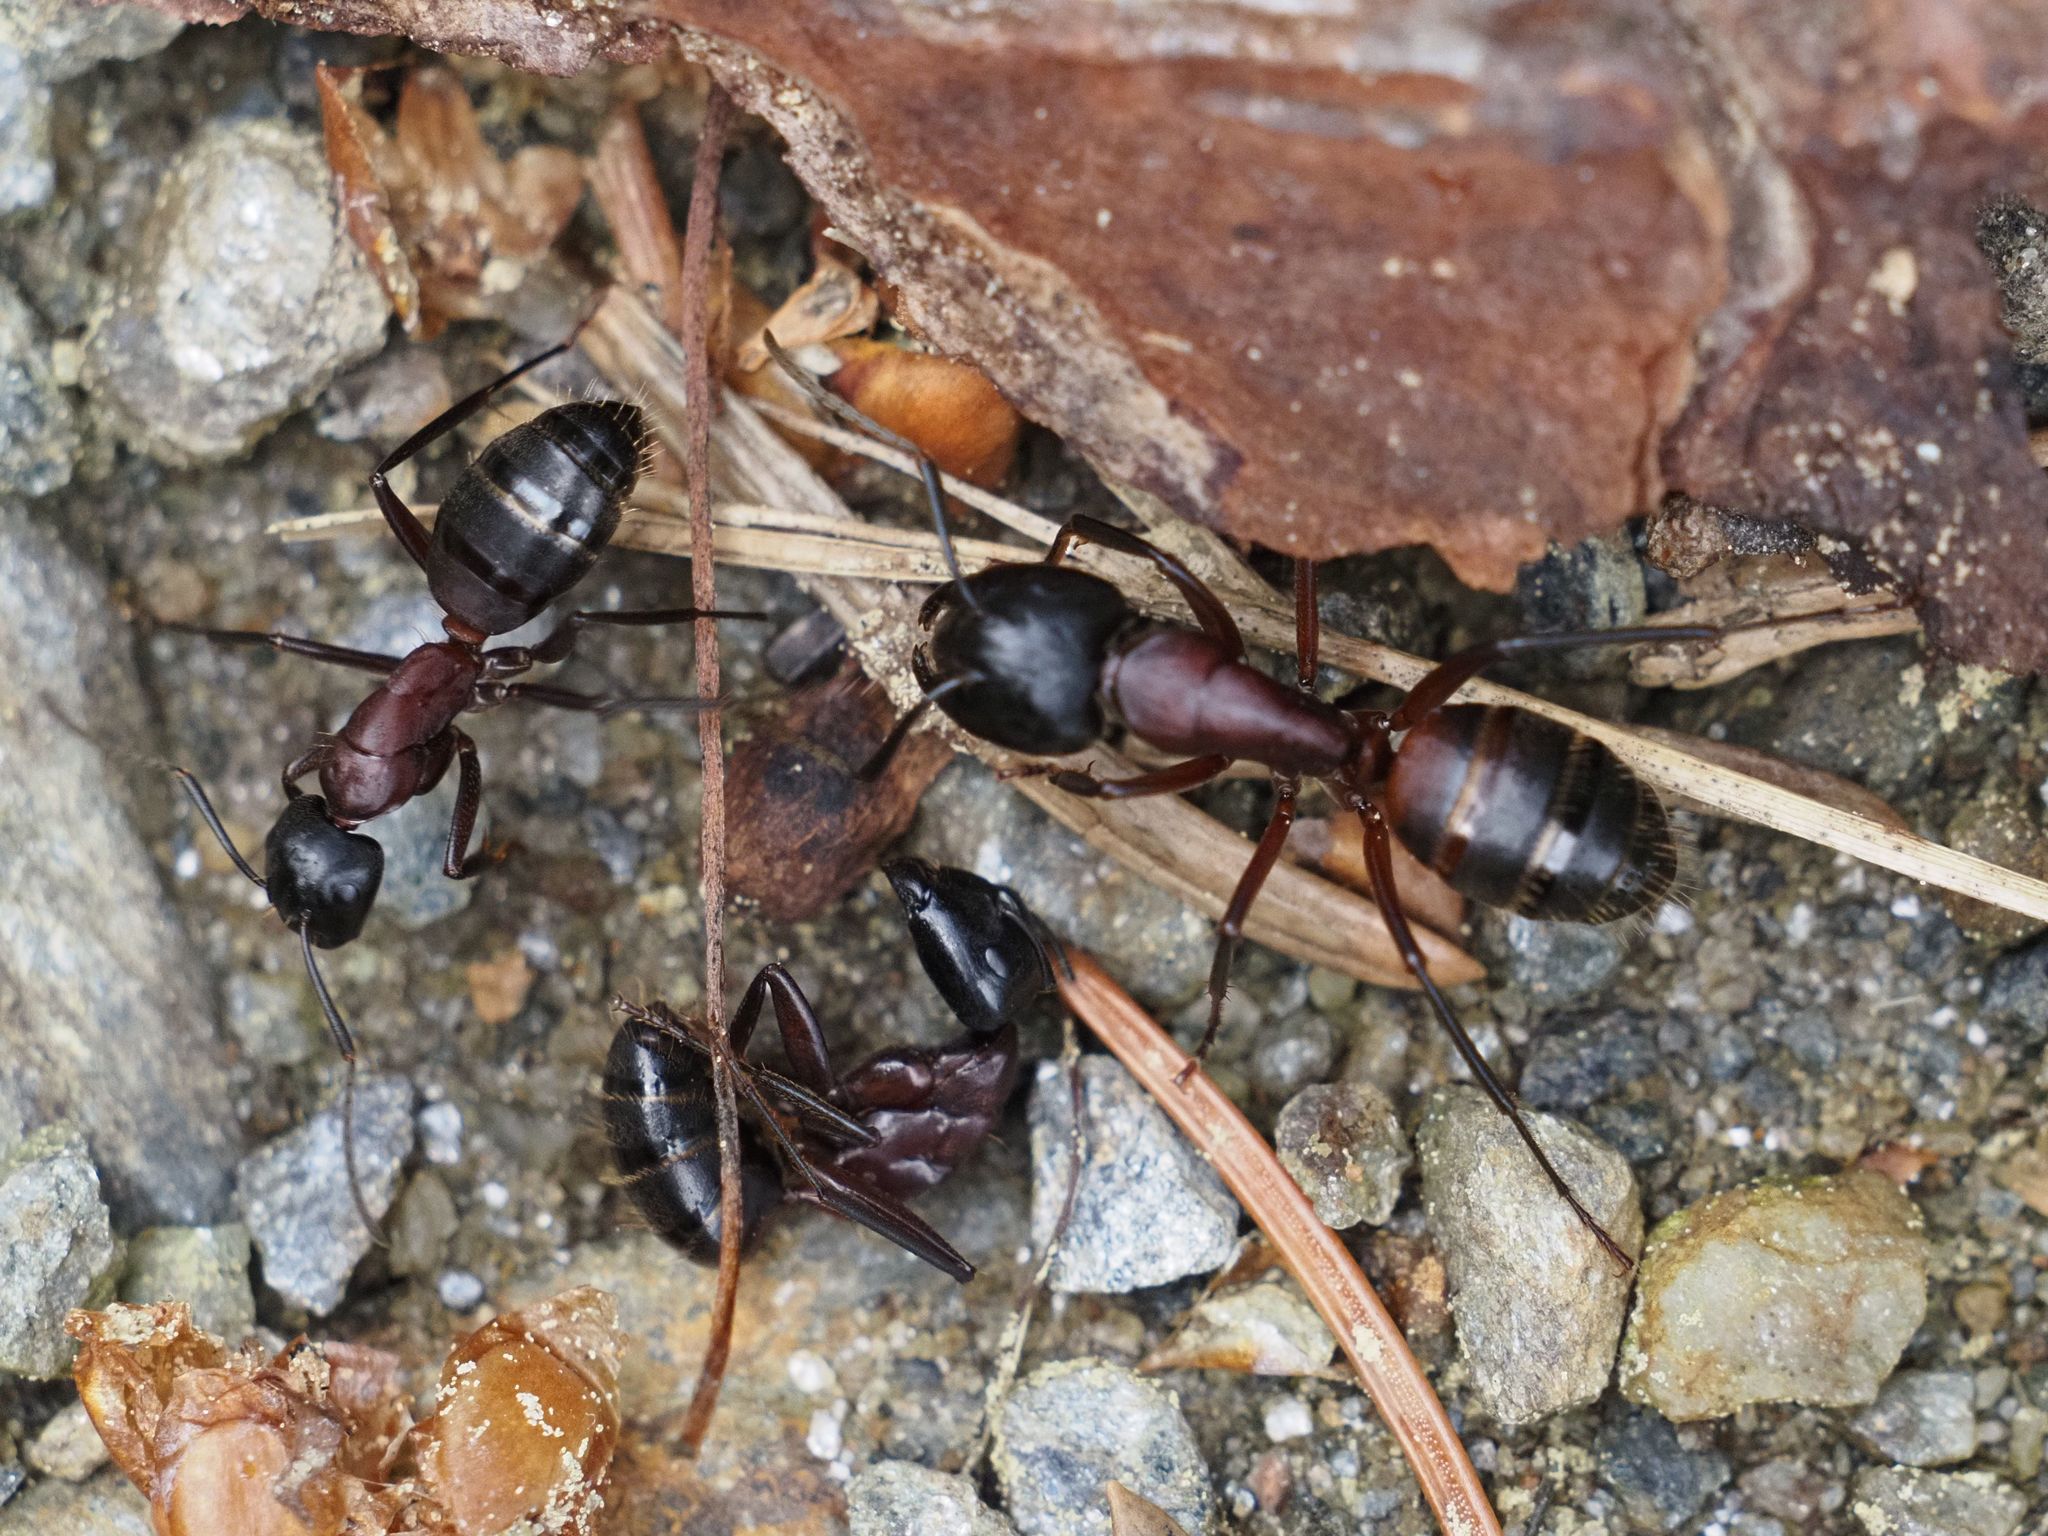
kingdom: Animalia
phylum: Arthropoda
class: Insecta
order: Hymenoptera
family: Formicidae
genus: Camponotus
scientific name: Camponotus ligniperdus
